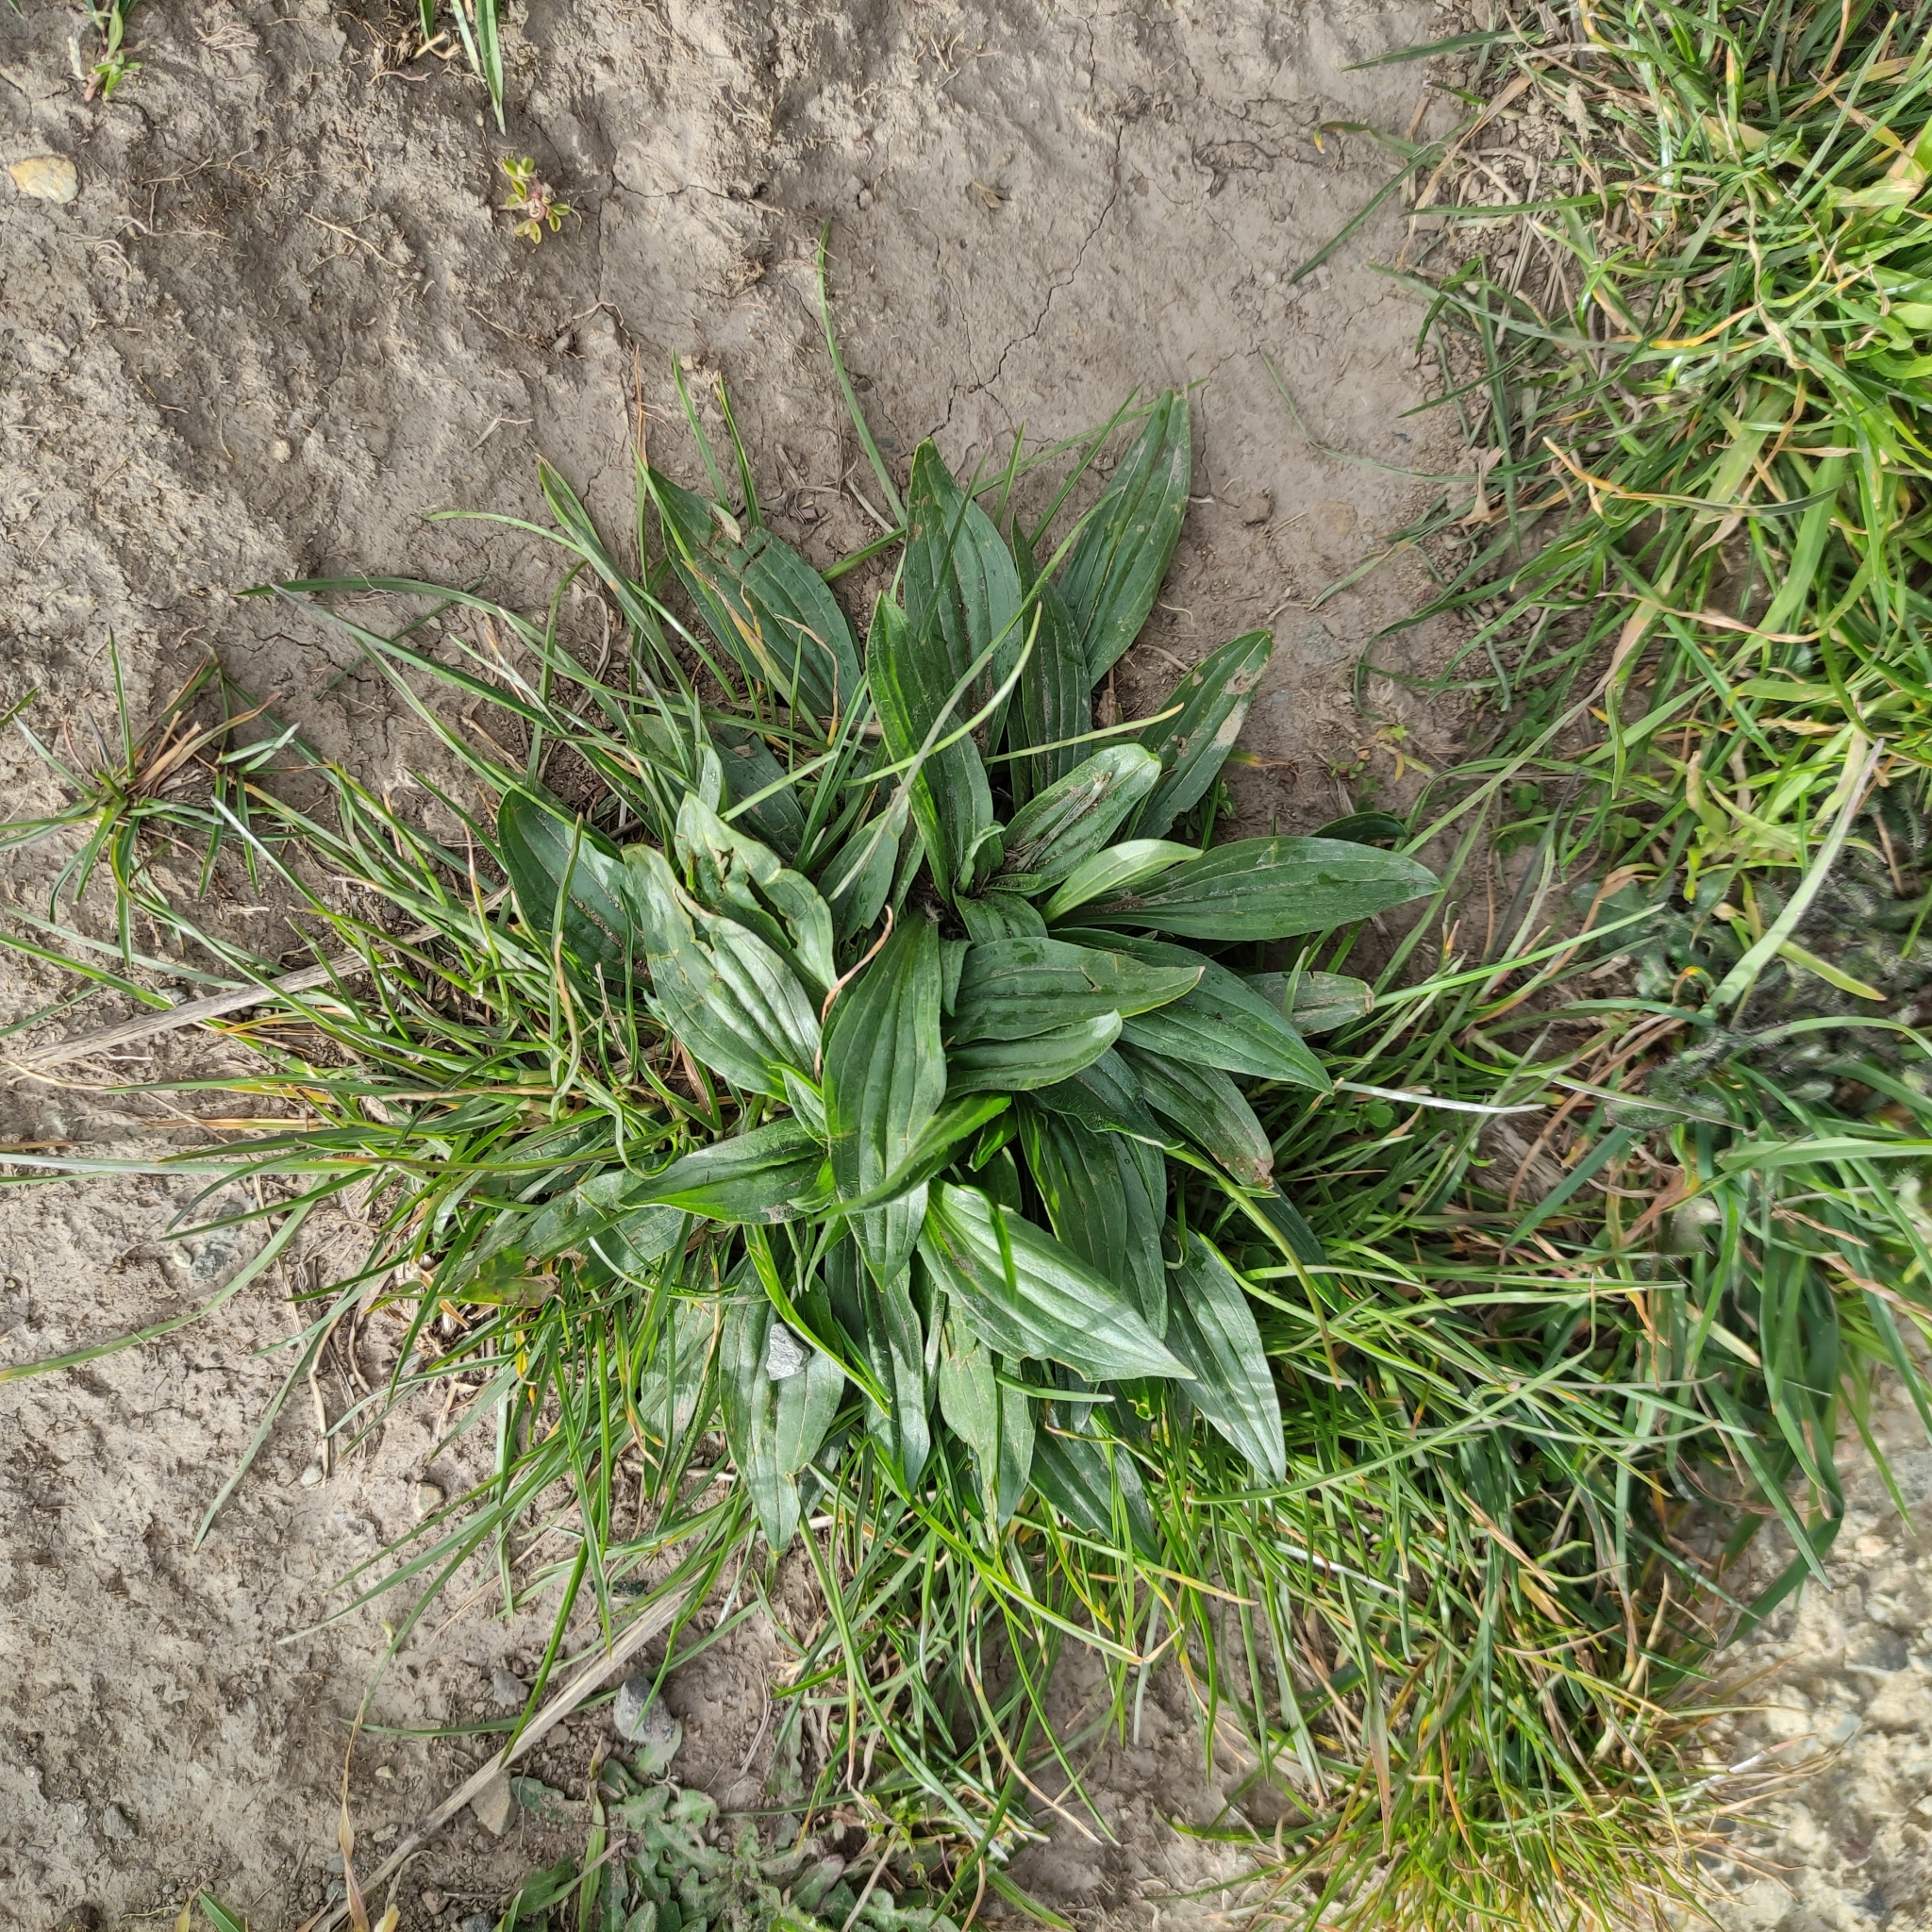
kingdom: Plantae
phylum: Tracheophyta
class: Magnoliopsida
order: Lamiales
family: Plantaginaceae
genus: Plantago
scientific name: Plantago lanceolata
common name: Ribwort plantain
